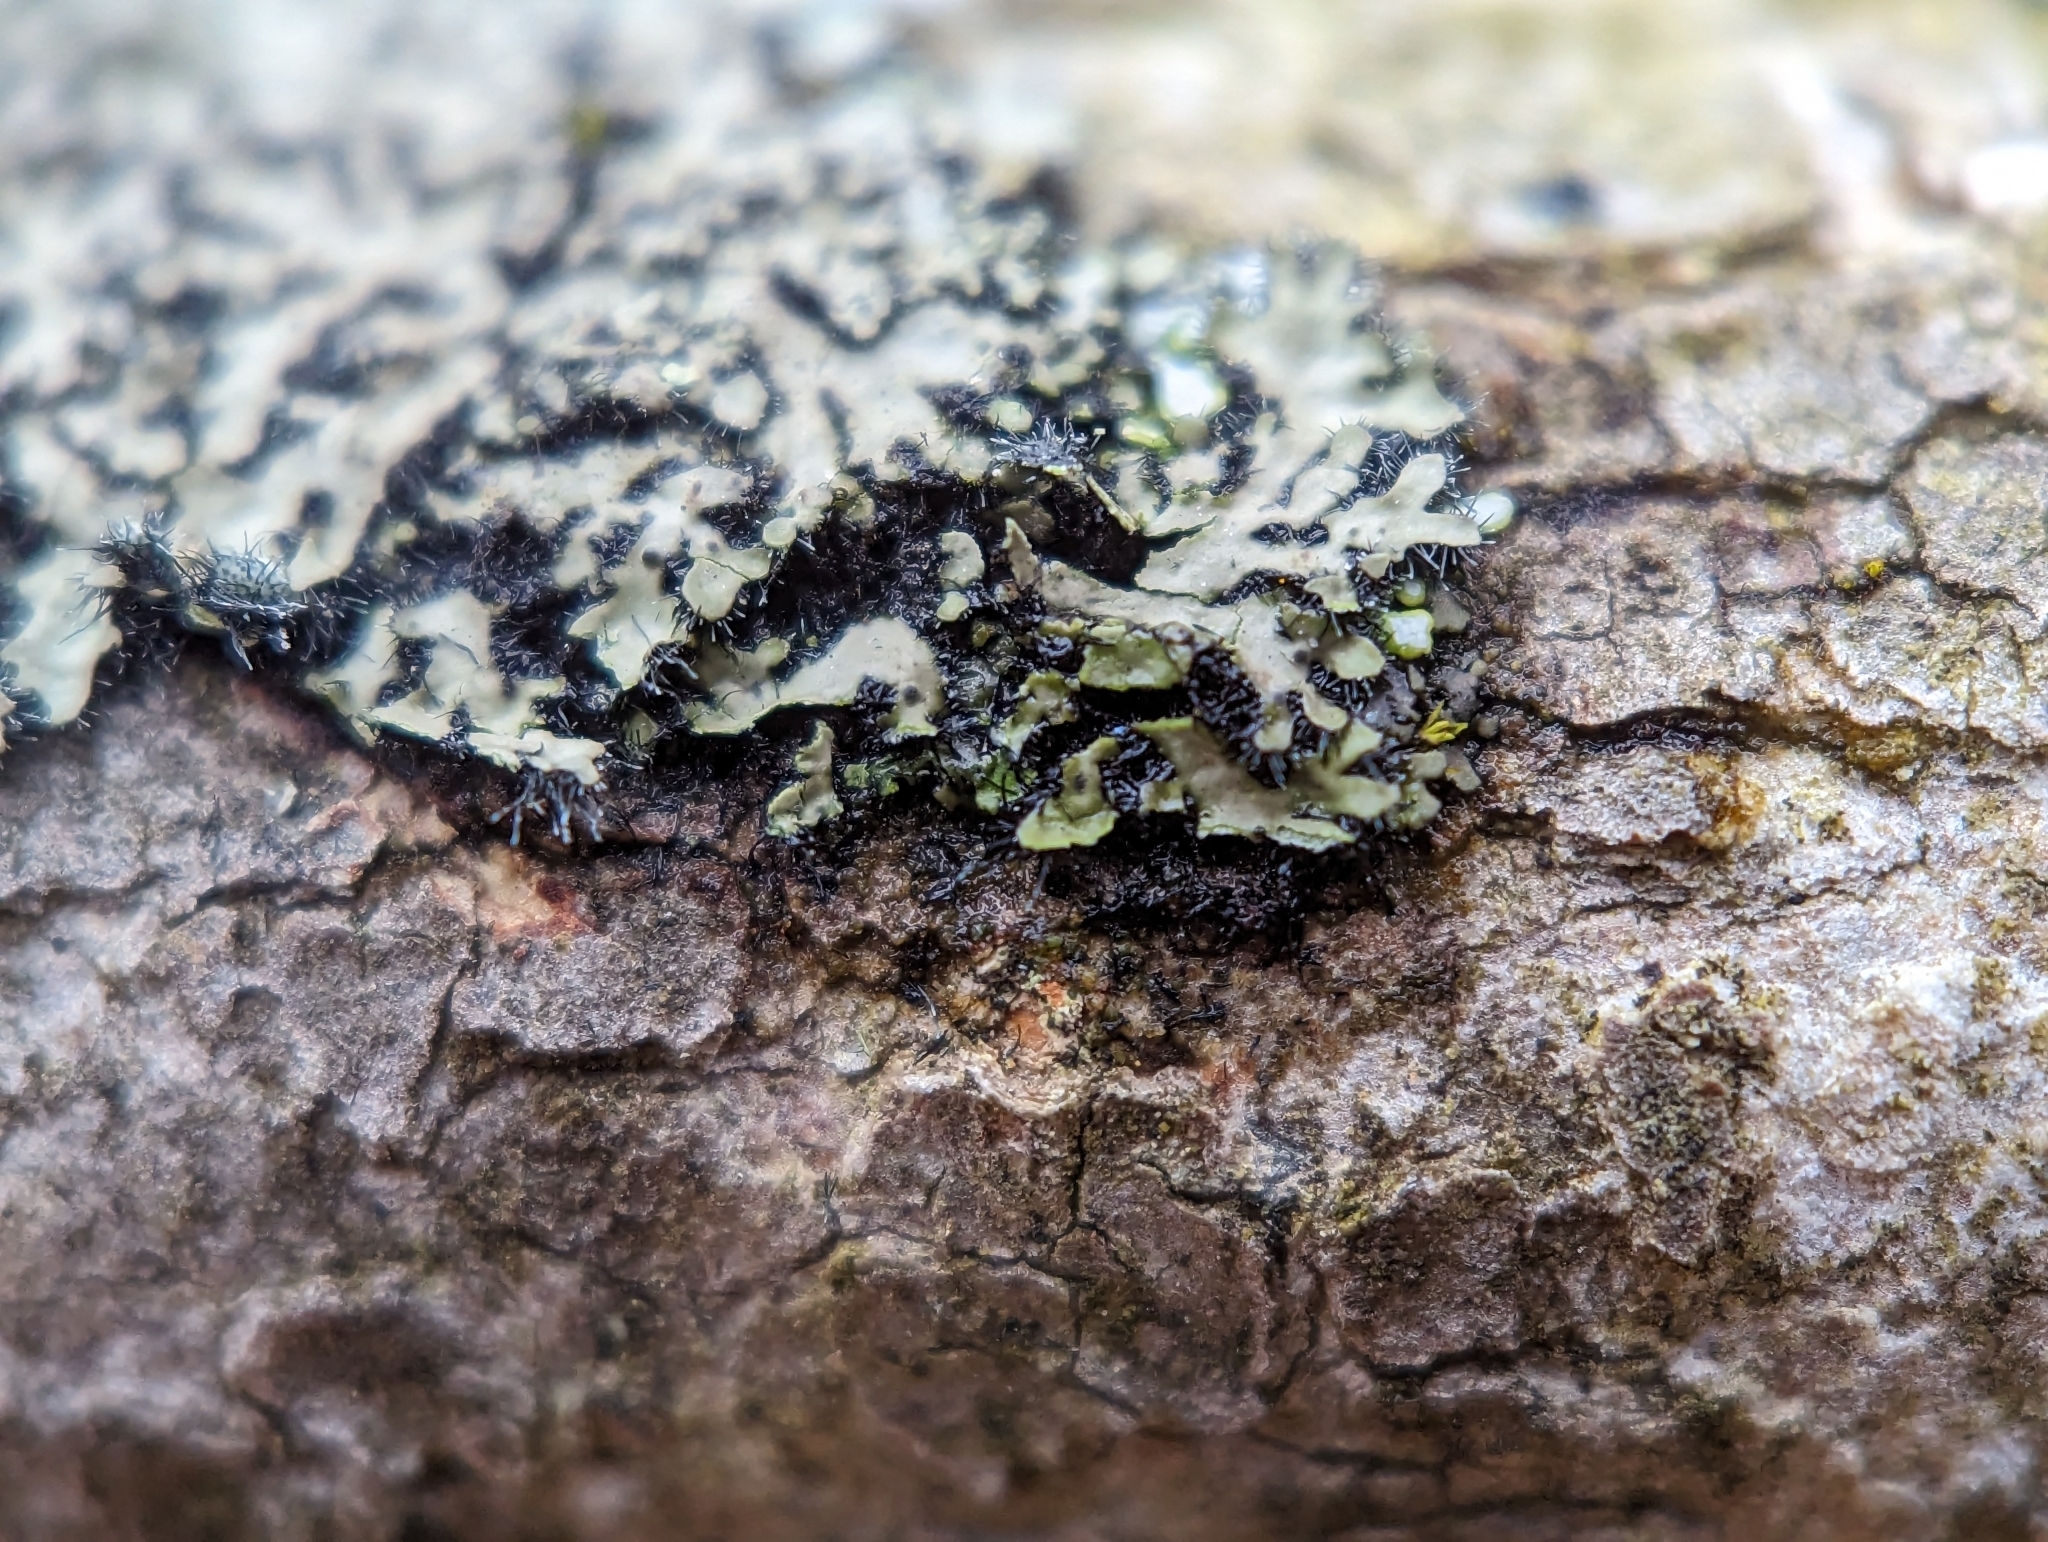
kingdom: Fungi
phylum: Ascomycota
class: Lecanoromycetes
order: Caliciales
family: Physciaceae
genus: Phaeophyscia
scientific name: Phaeophyscia ciliata
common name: Smooth shadow lichen
